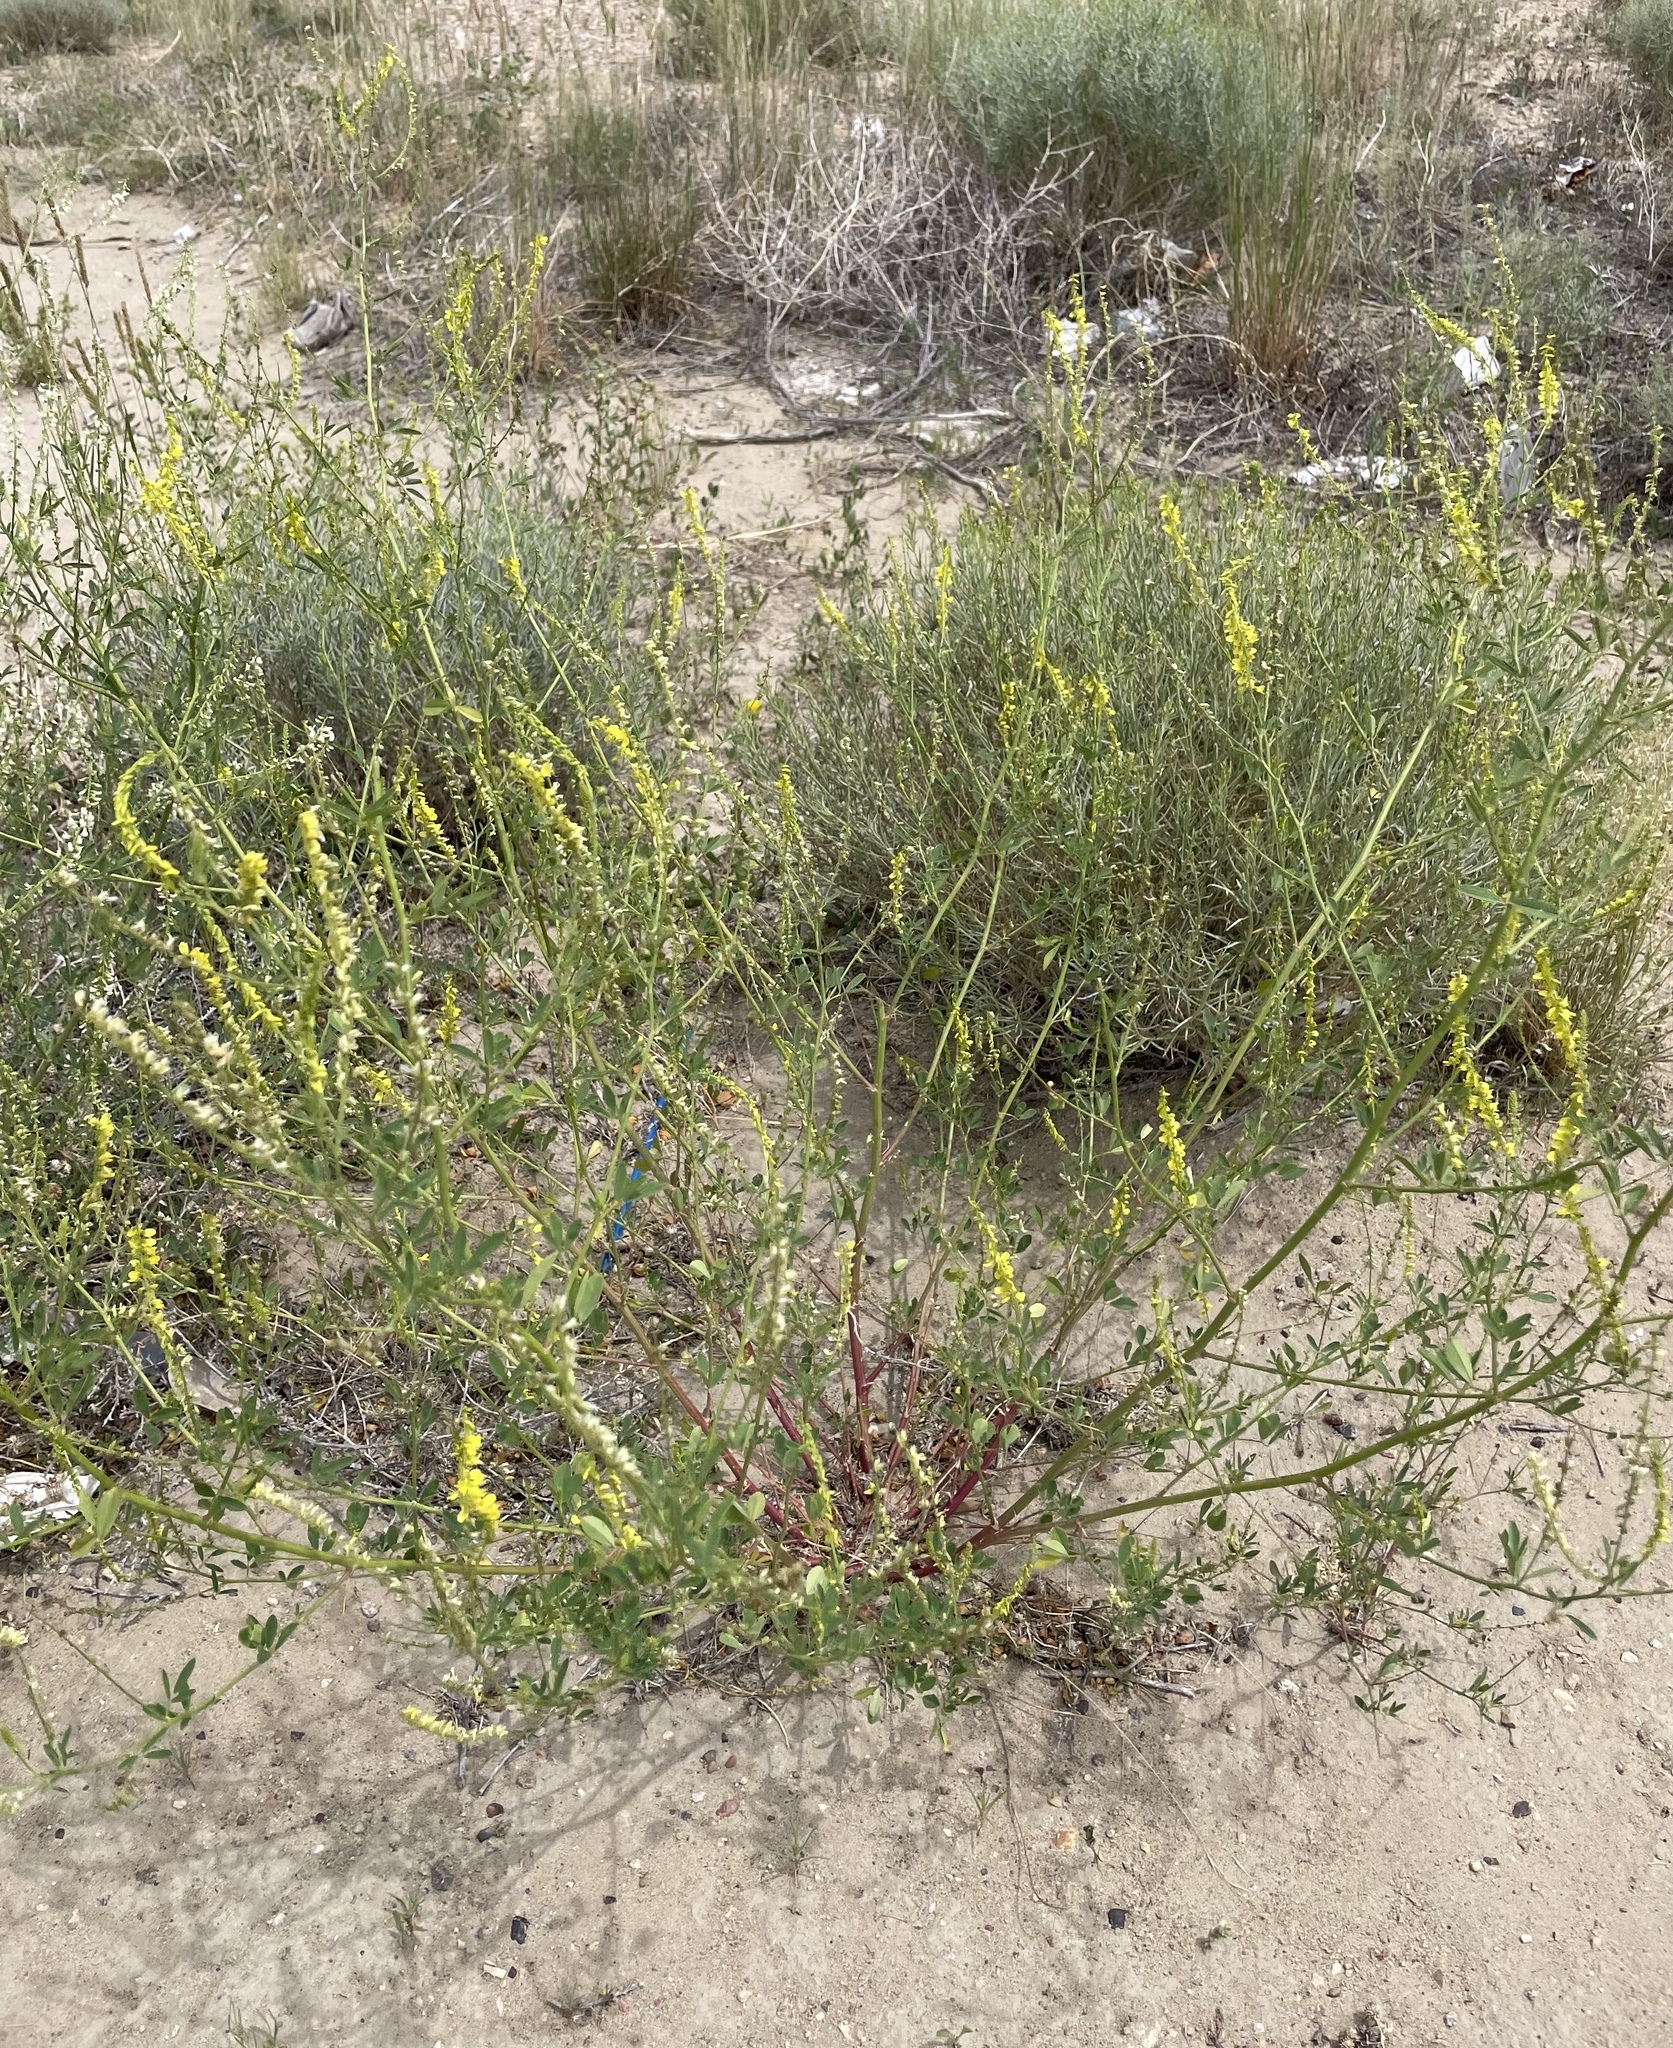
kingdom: Plantae
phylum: Tracheophyta
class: Magnoliopsida
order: Fabales
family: Fabaceae
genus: Melilotus
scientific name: Melilotus officinalis
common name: Sweetclover
